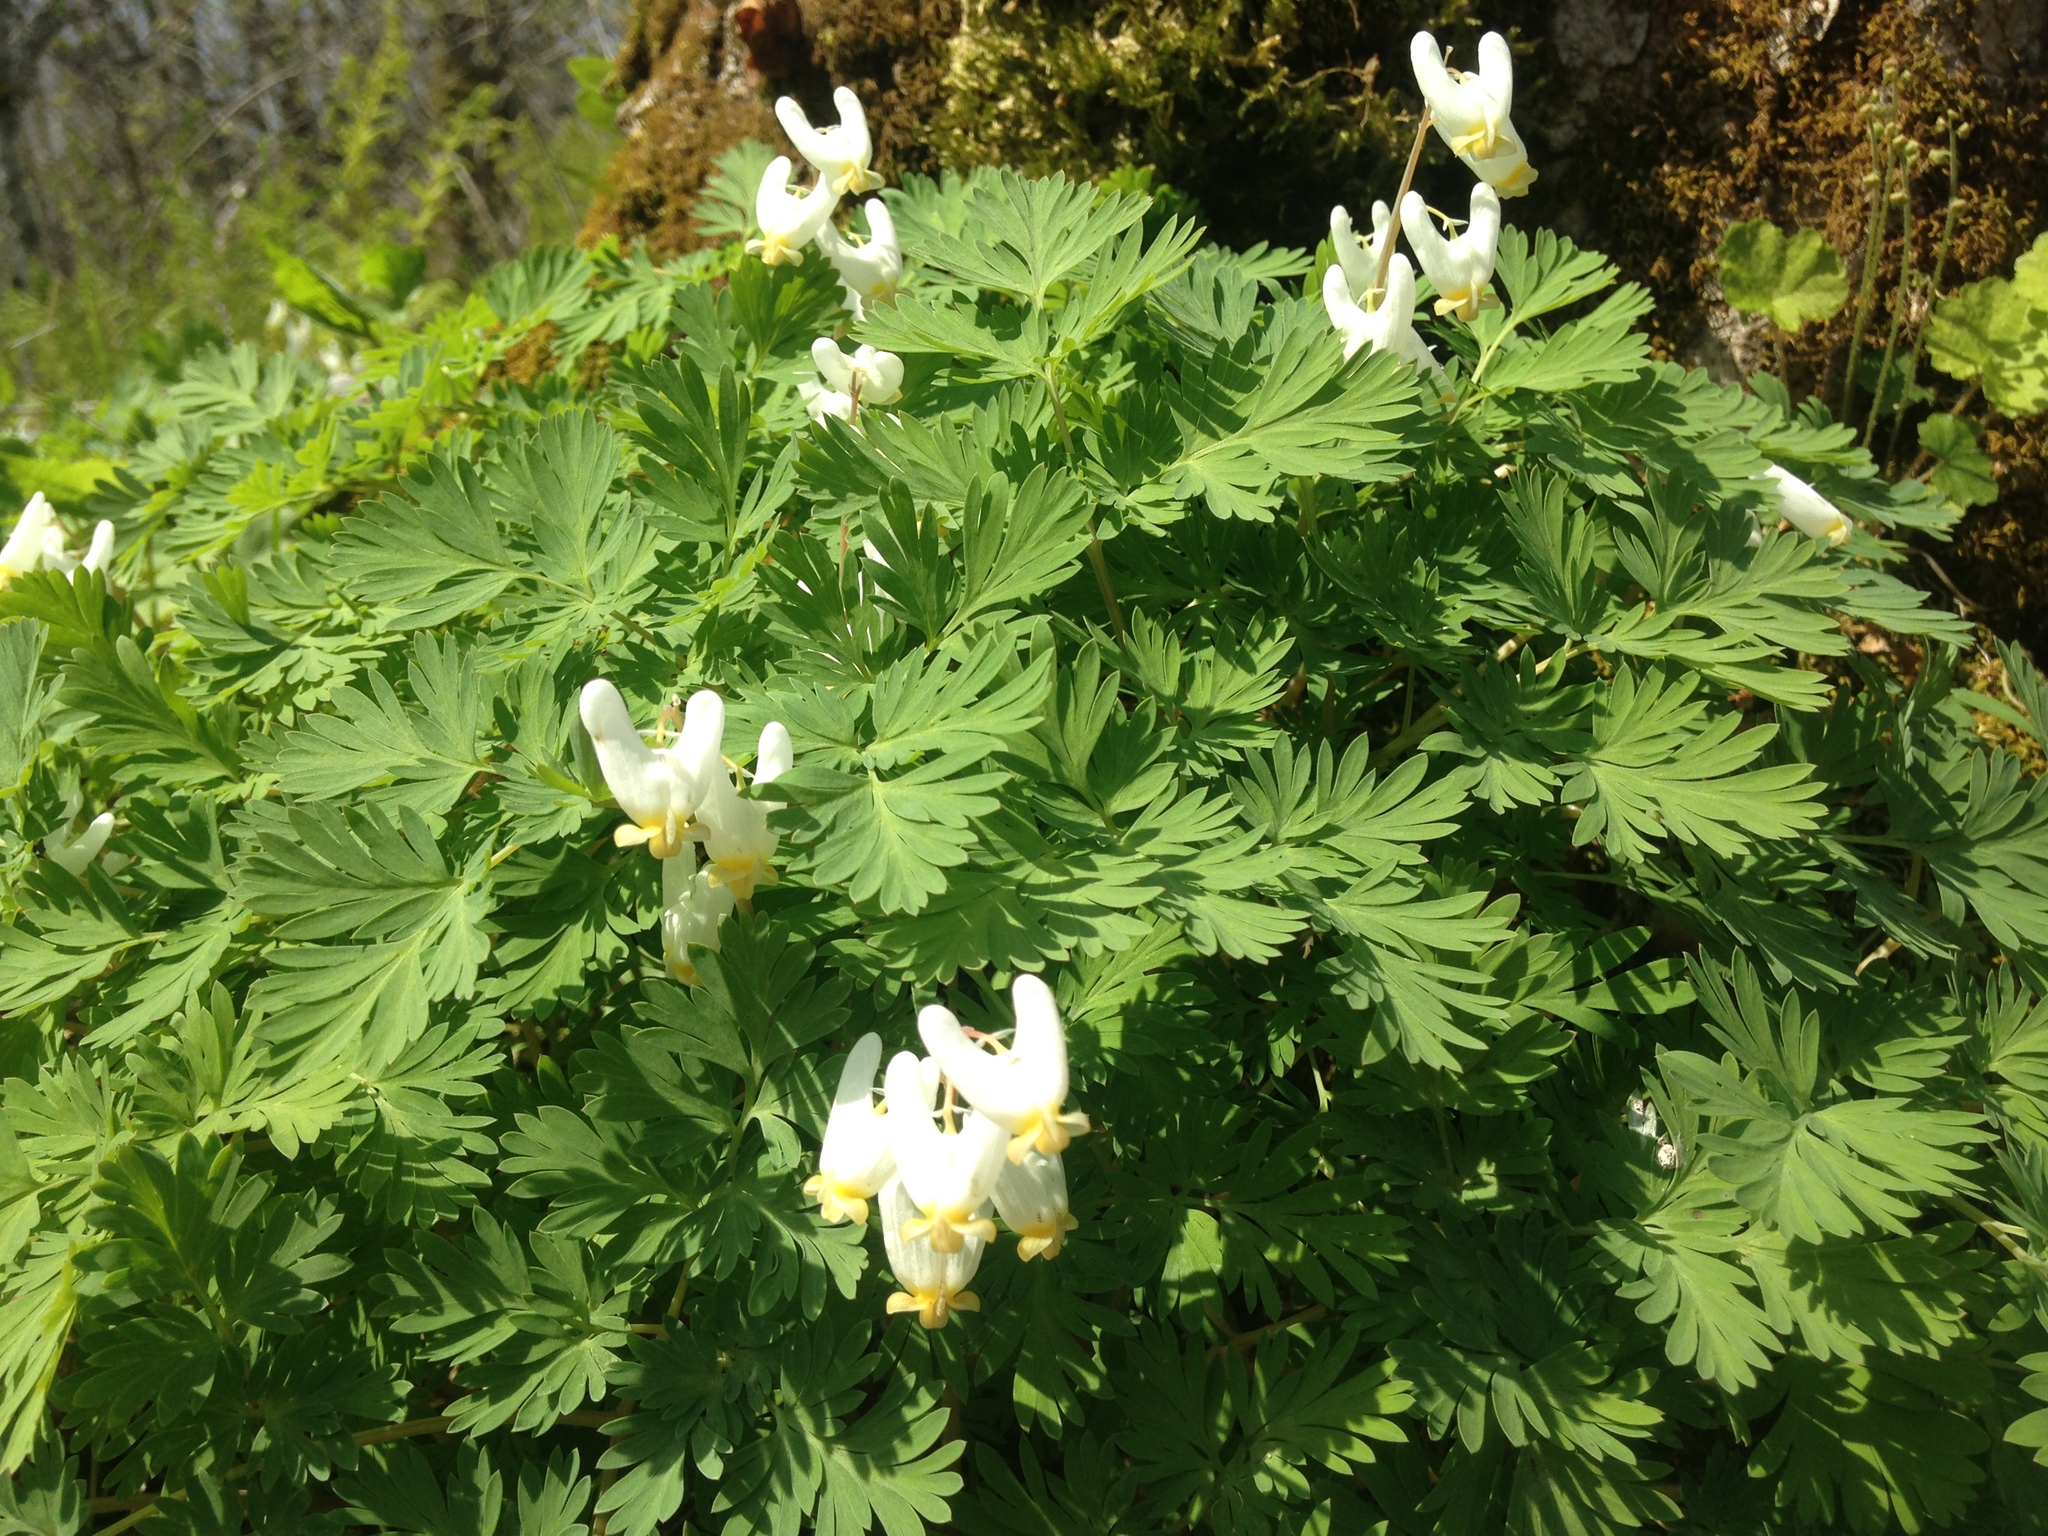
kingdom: Plantae
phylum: Tracheophyta
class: Magnoliopsida
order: Ranunculales
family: Papaveraceae
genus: Dicentra
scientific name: Dicentra cucullaria
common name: Dutchman's breeches
